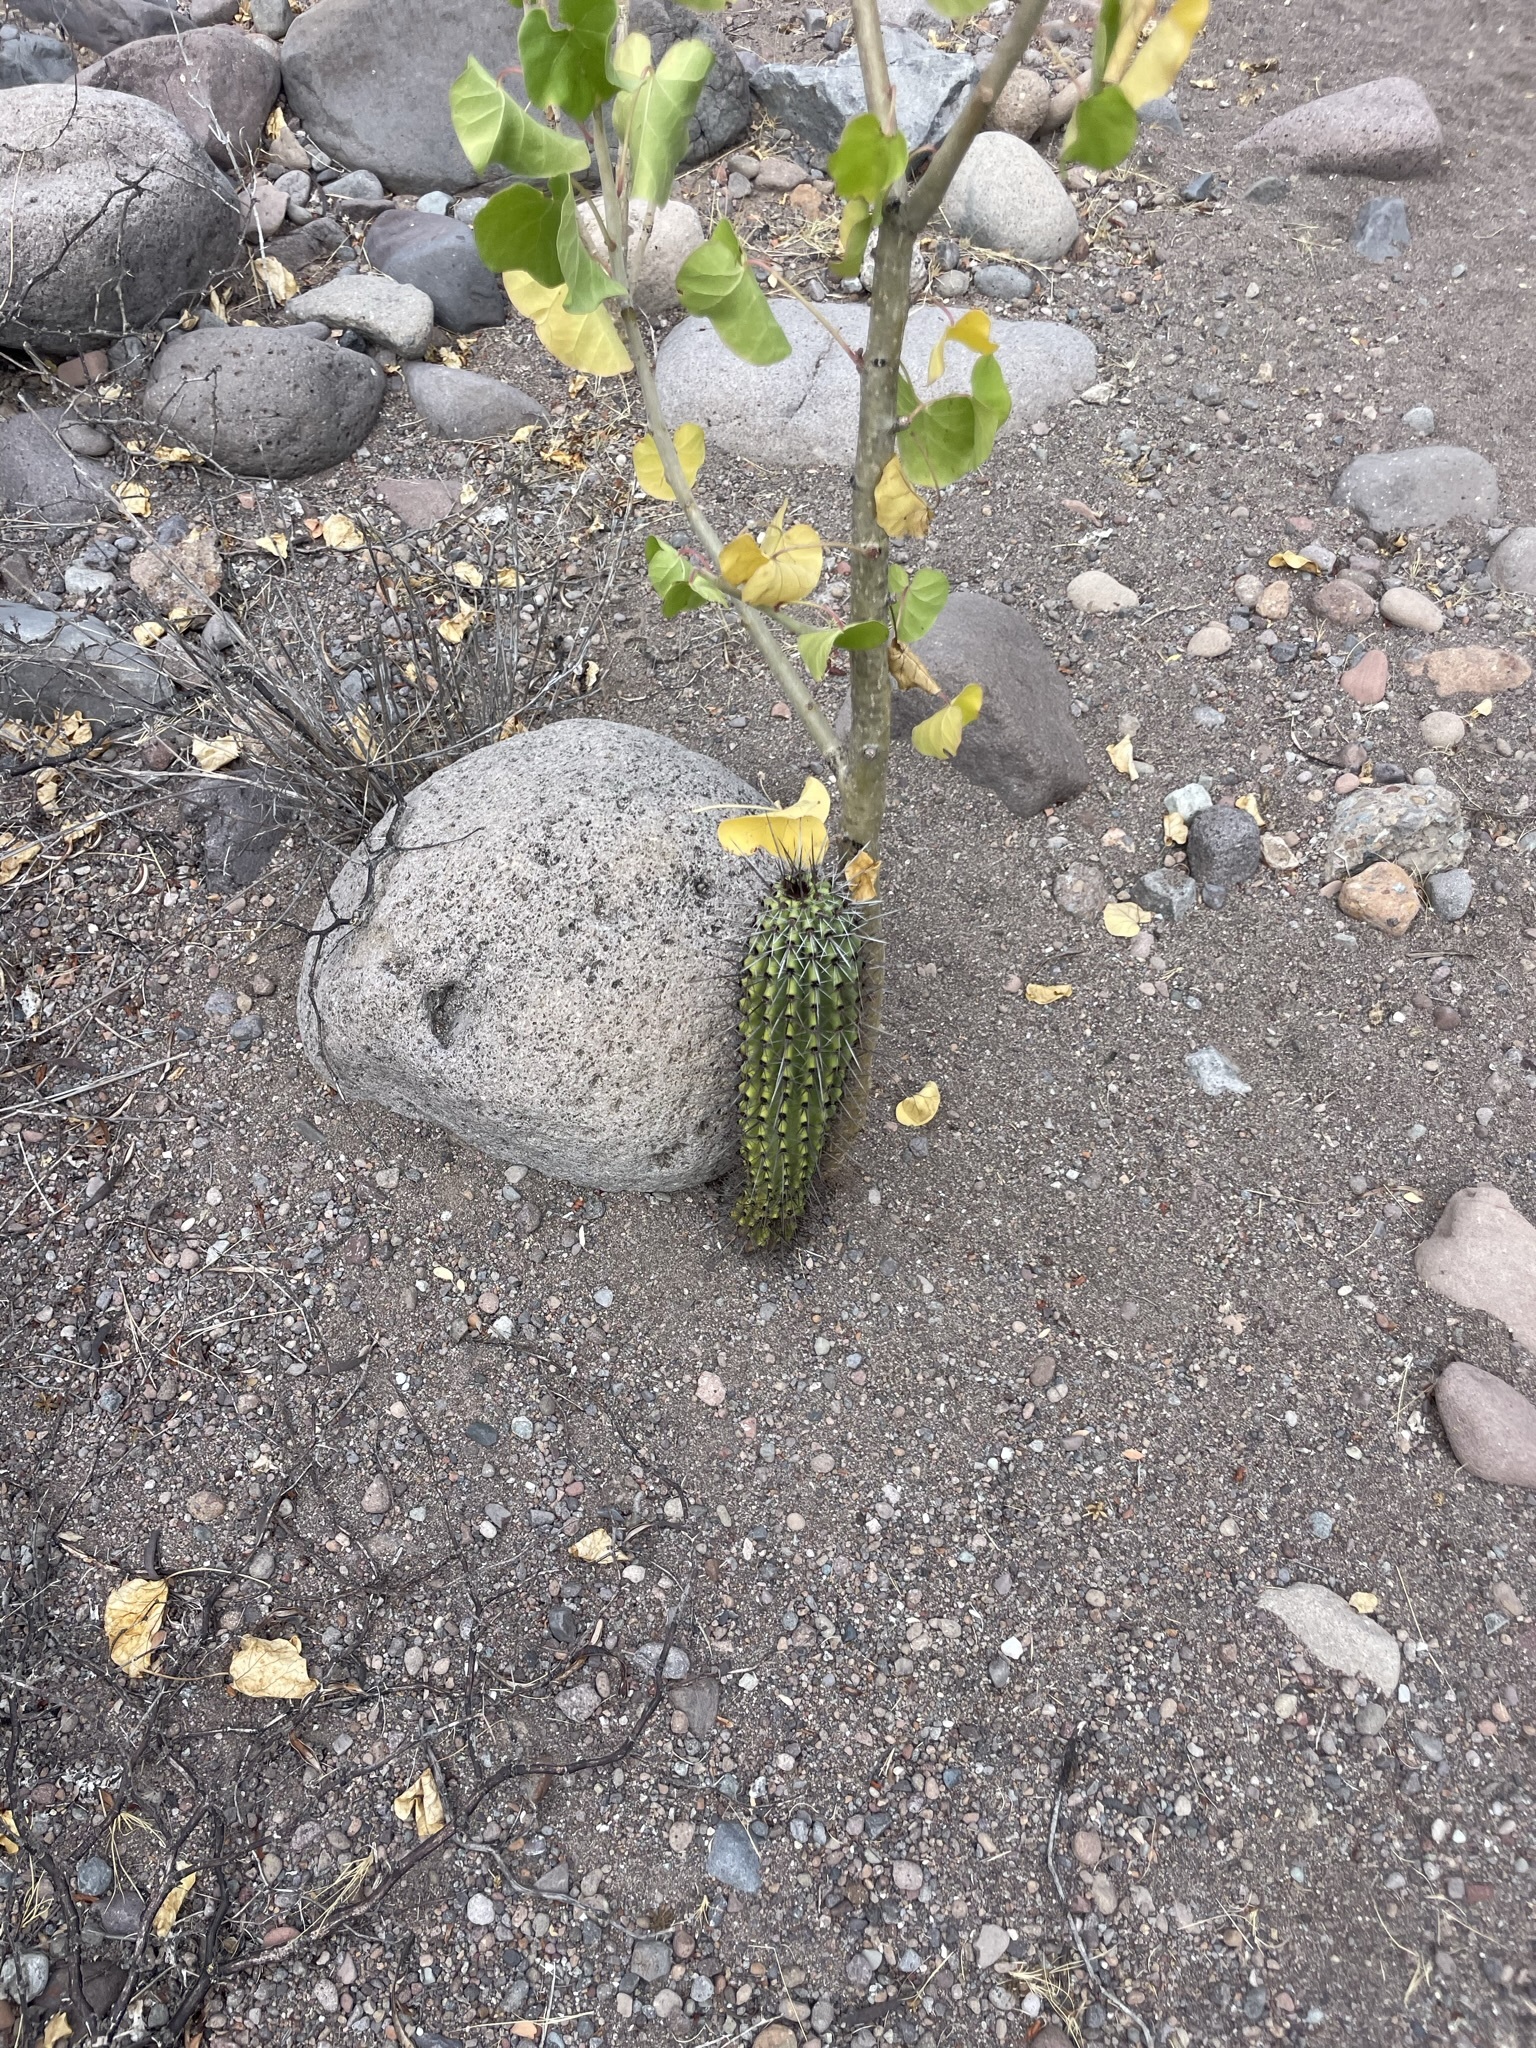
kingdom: Plantae
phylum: Tracheophyta
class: Magnoliopsida
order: Caryophyllales
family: Cactaceae
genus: Stenocereus
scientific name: Stenocereus thurberi
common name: Organ pipe cactus
